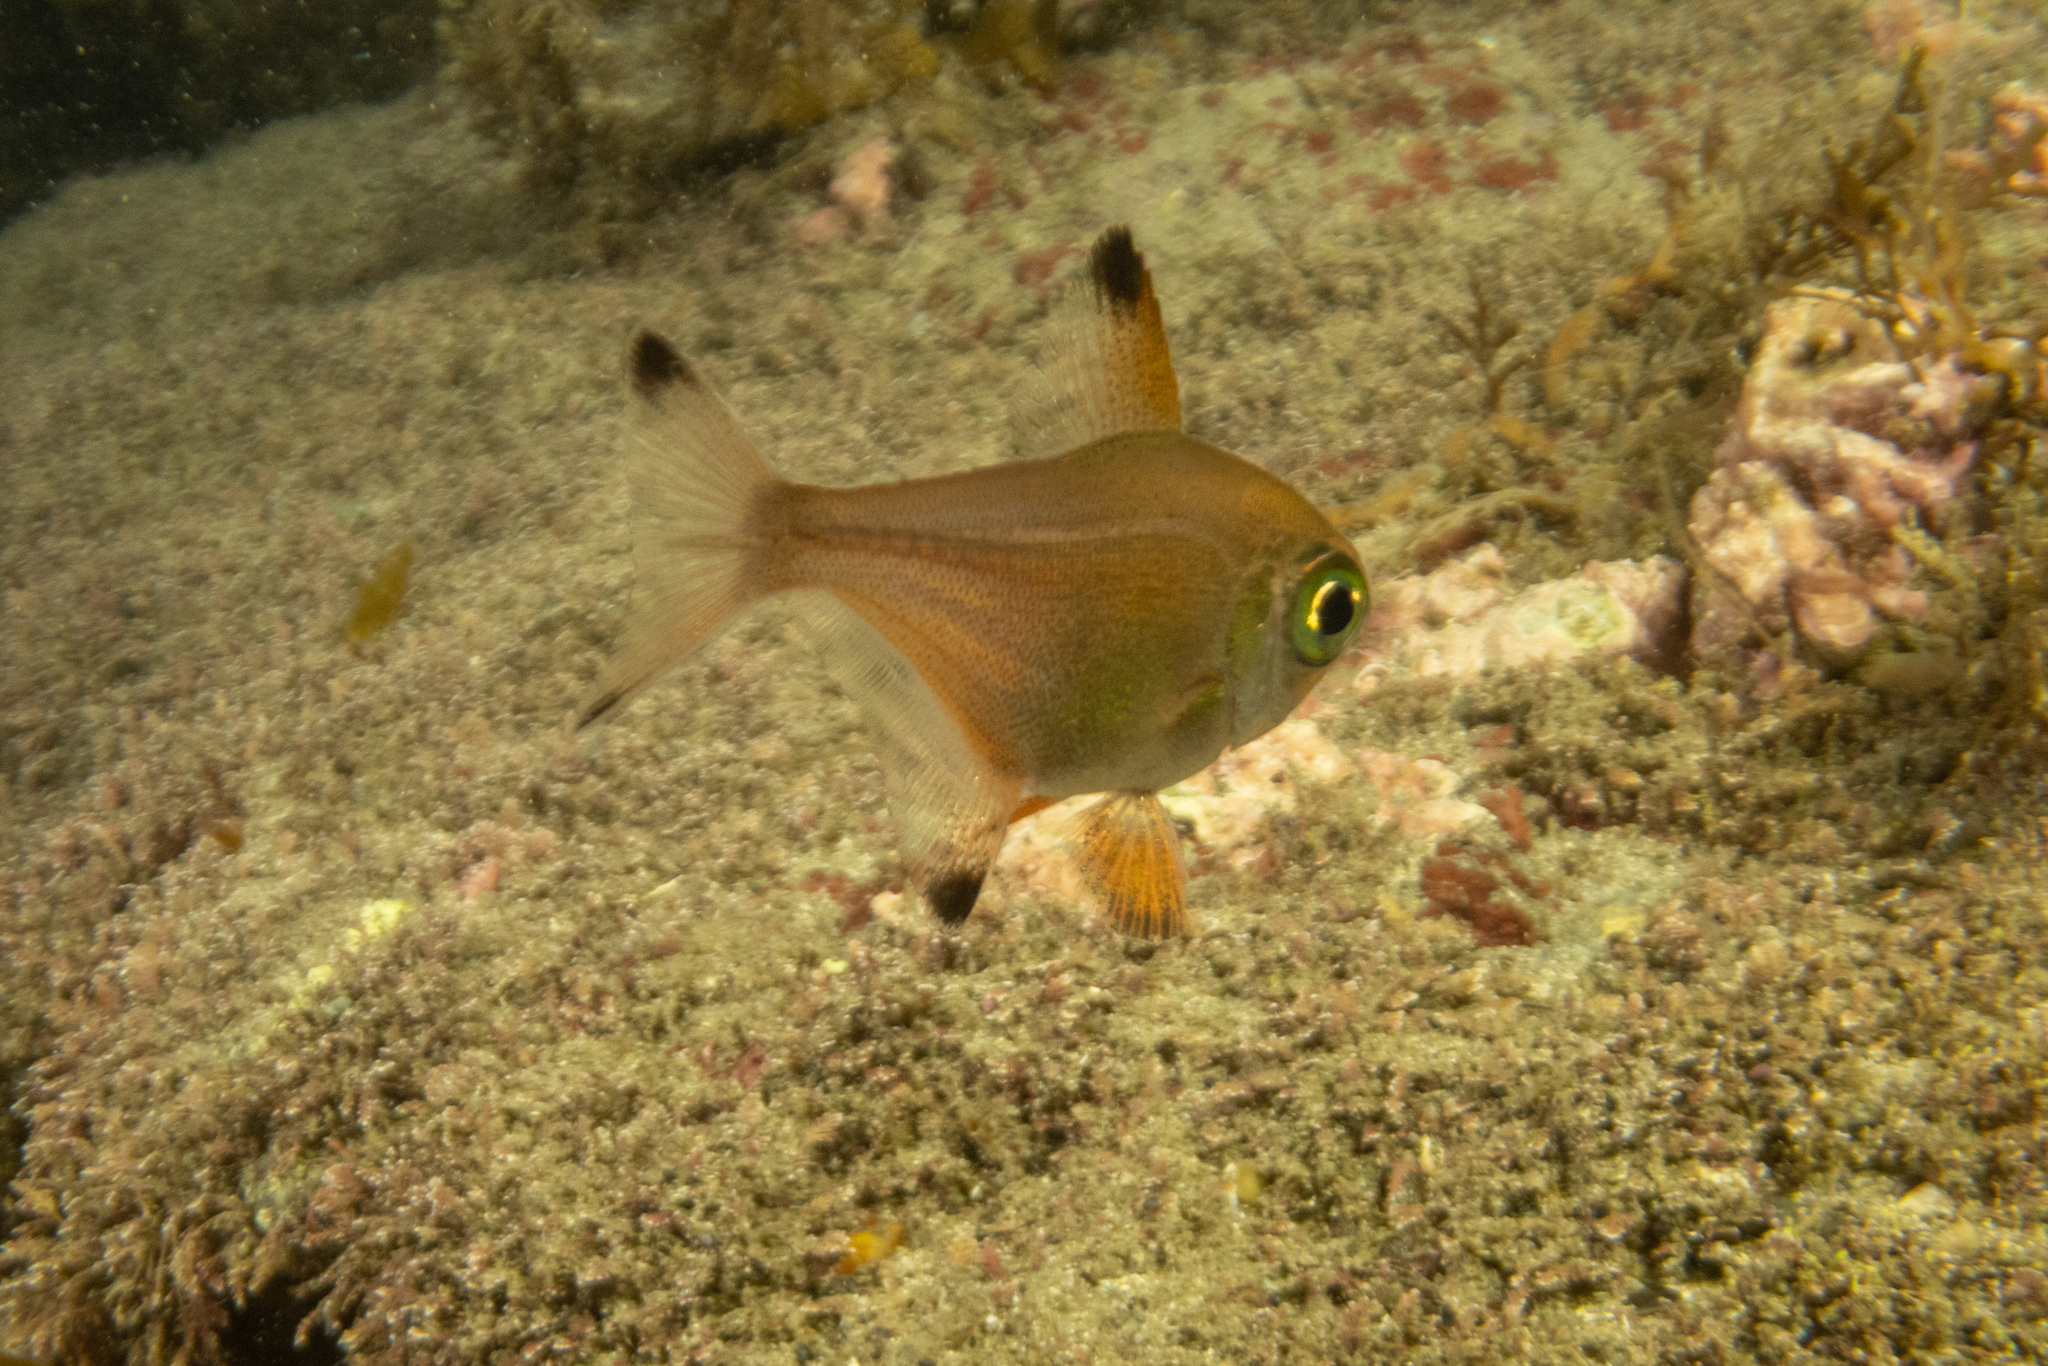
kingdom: Animalia
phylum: Chordata
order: Perciformes
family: Pempheridae
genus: Pempheris
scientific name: Pempheris adspersa
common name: Bigeye
